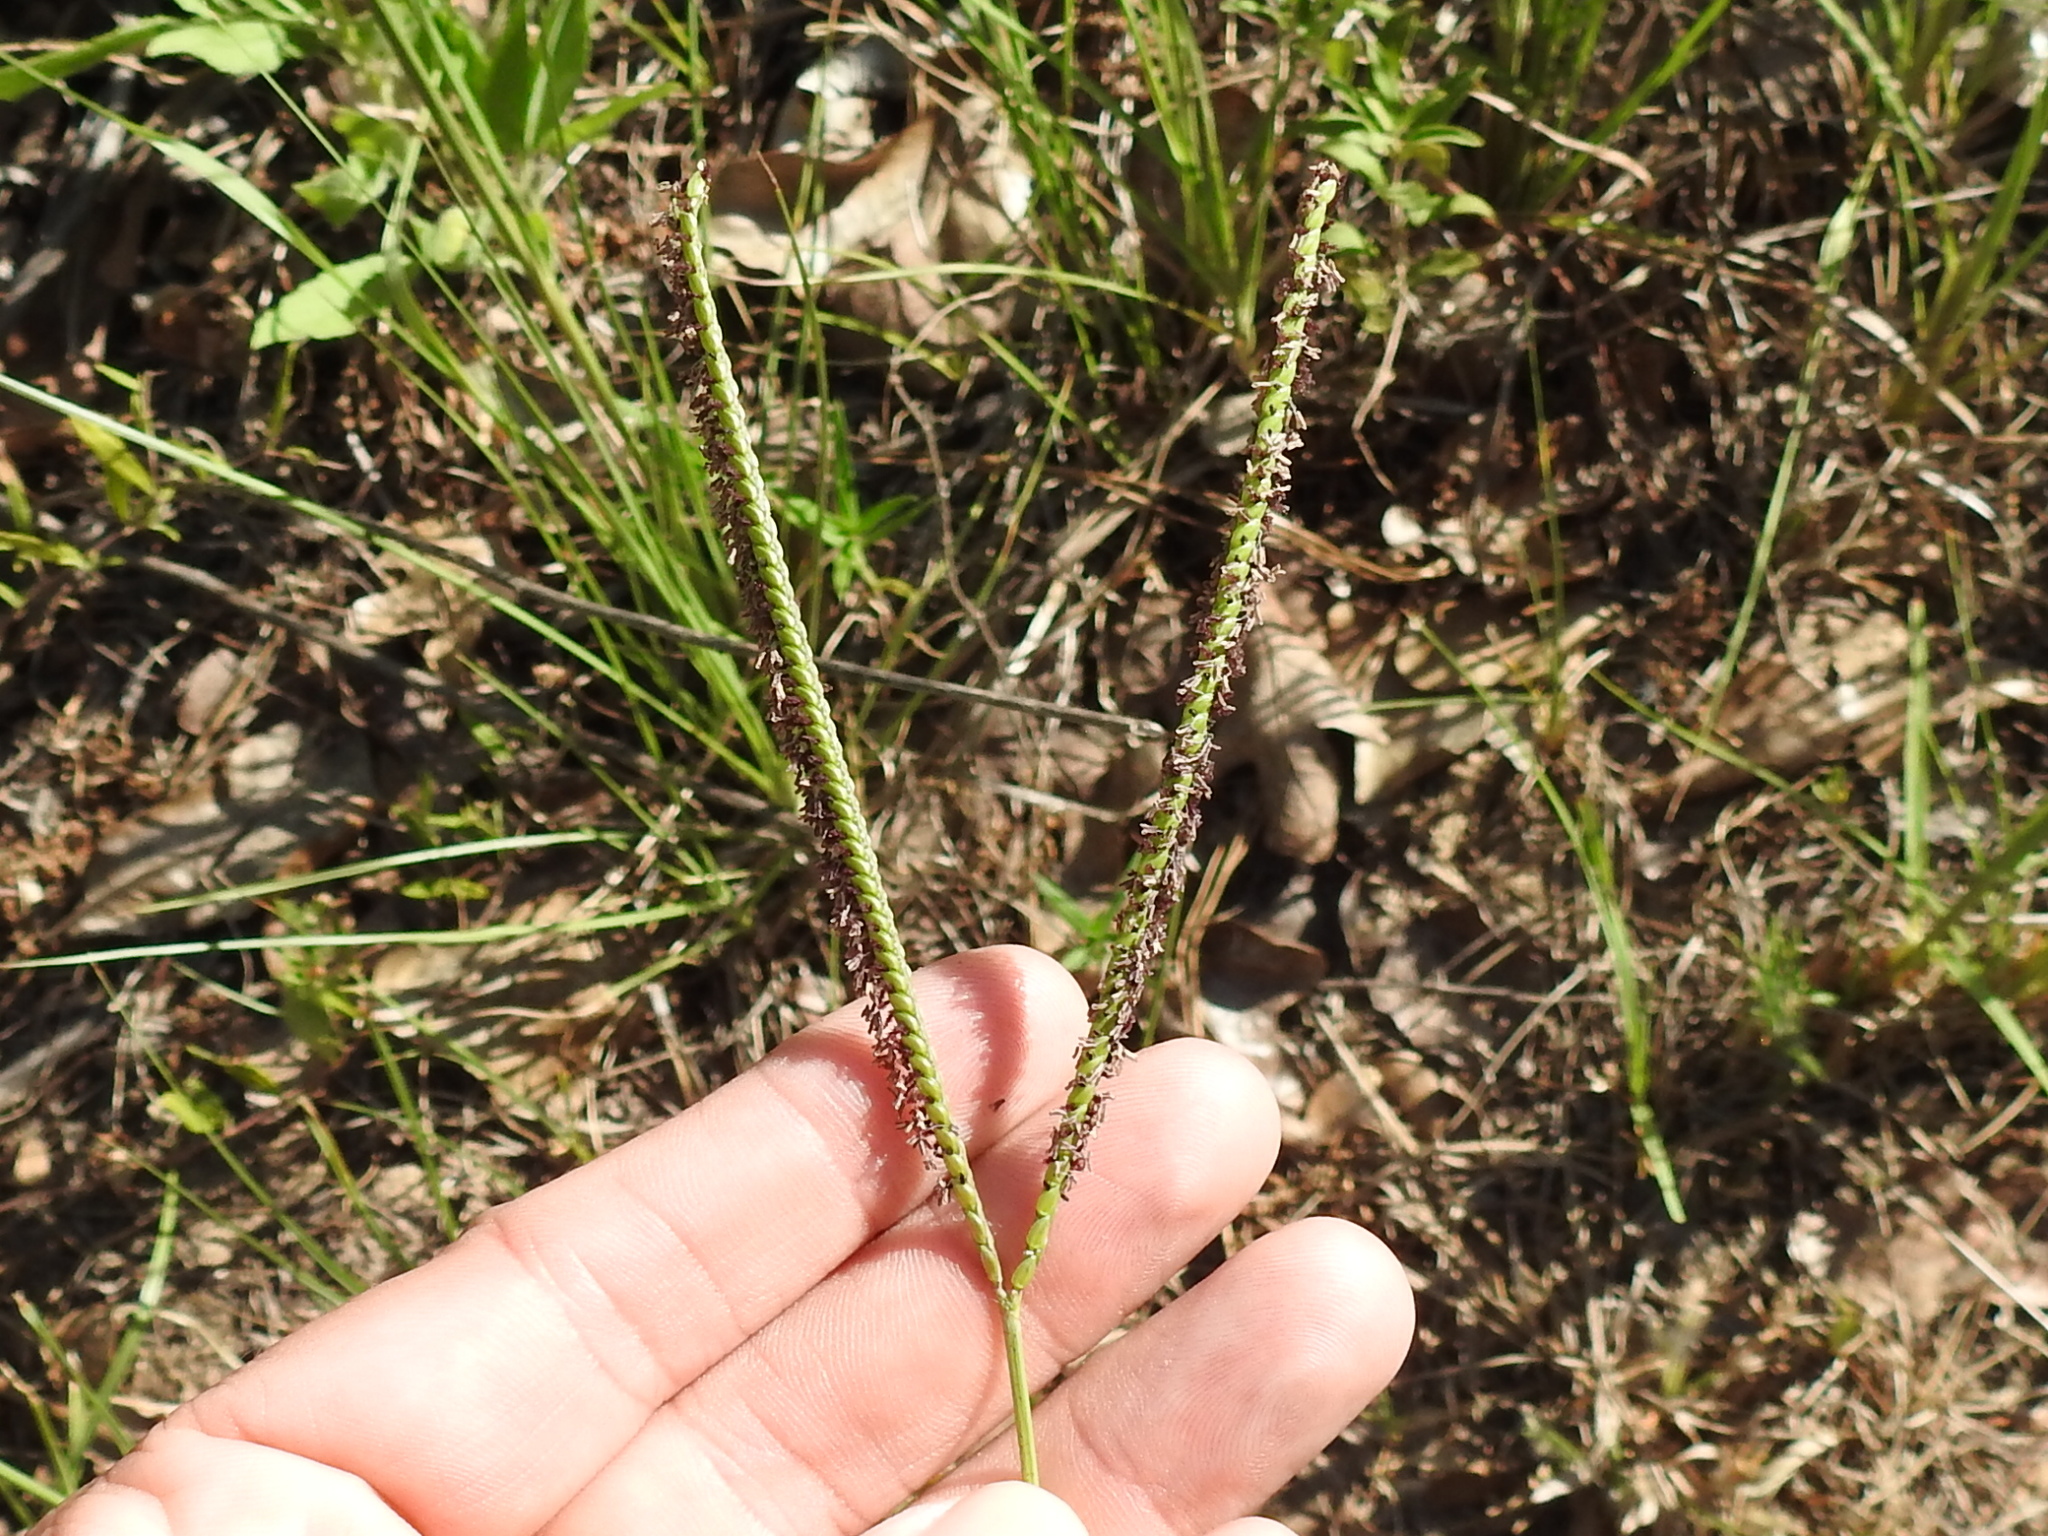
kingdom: Plantae
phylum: Tracheophyta
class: Liliopsida
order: Poales
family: Poaceae
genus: Paspalum
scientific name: Paspalum notatum
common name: Bahiagrass
